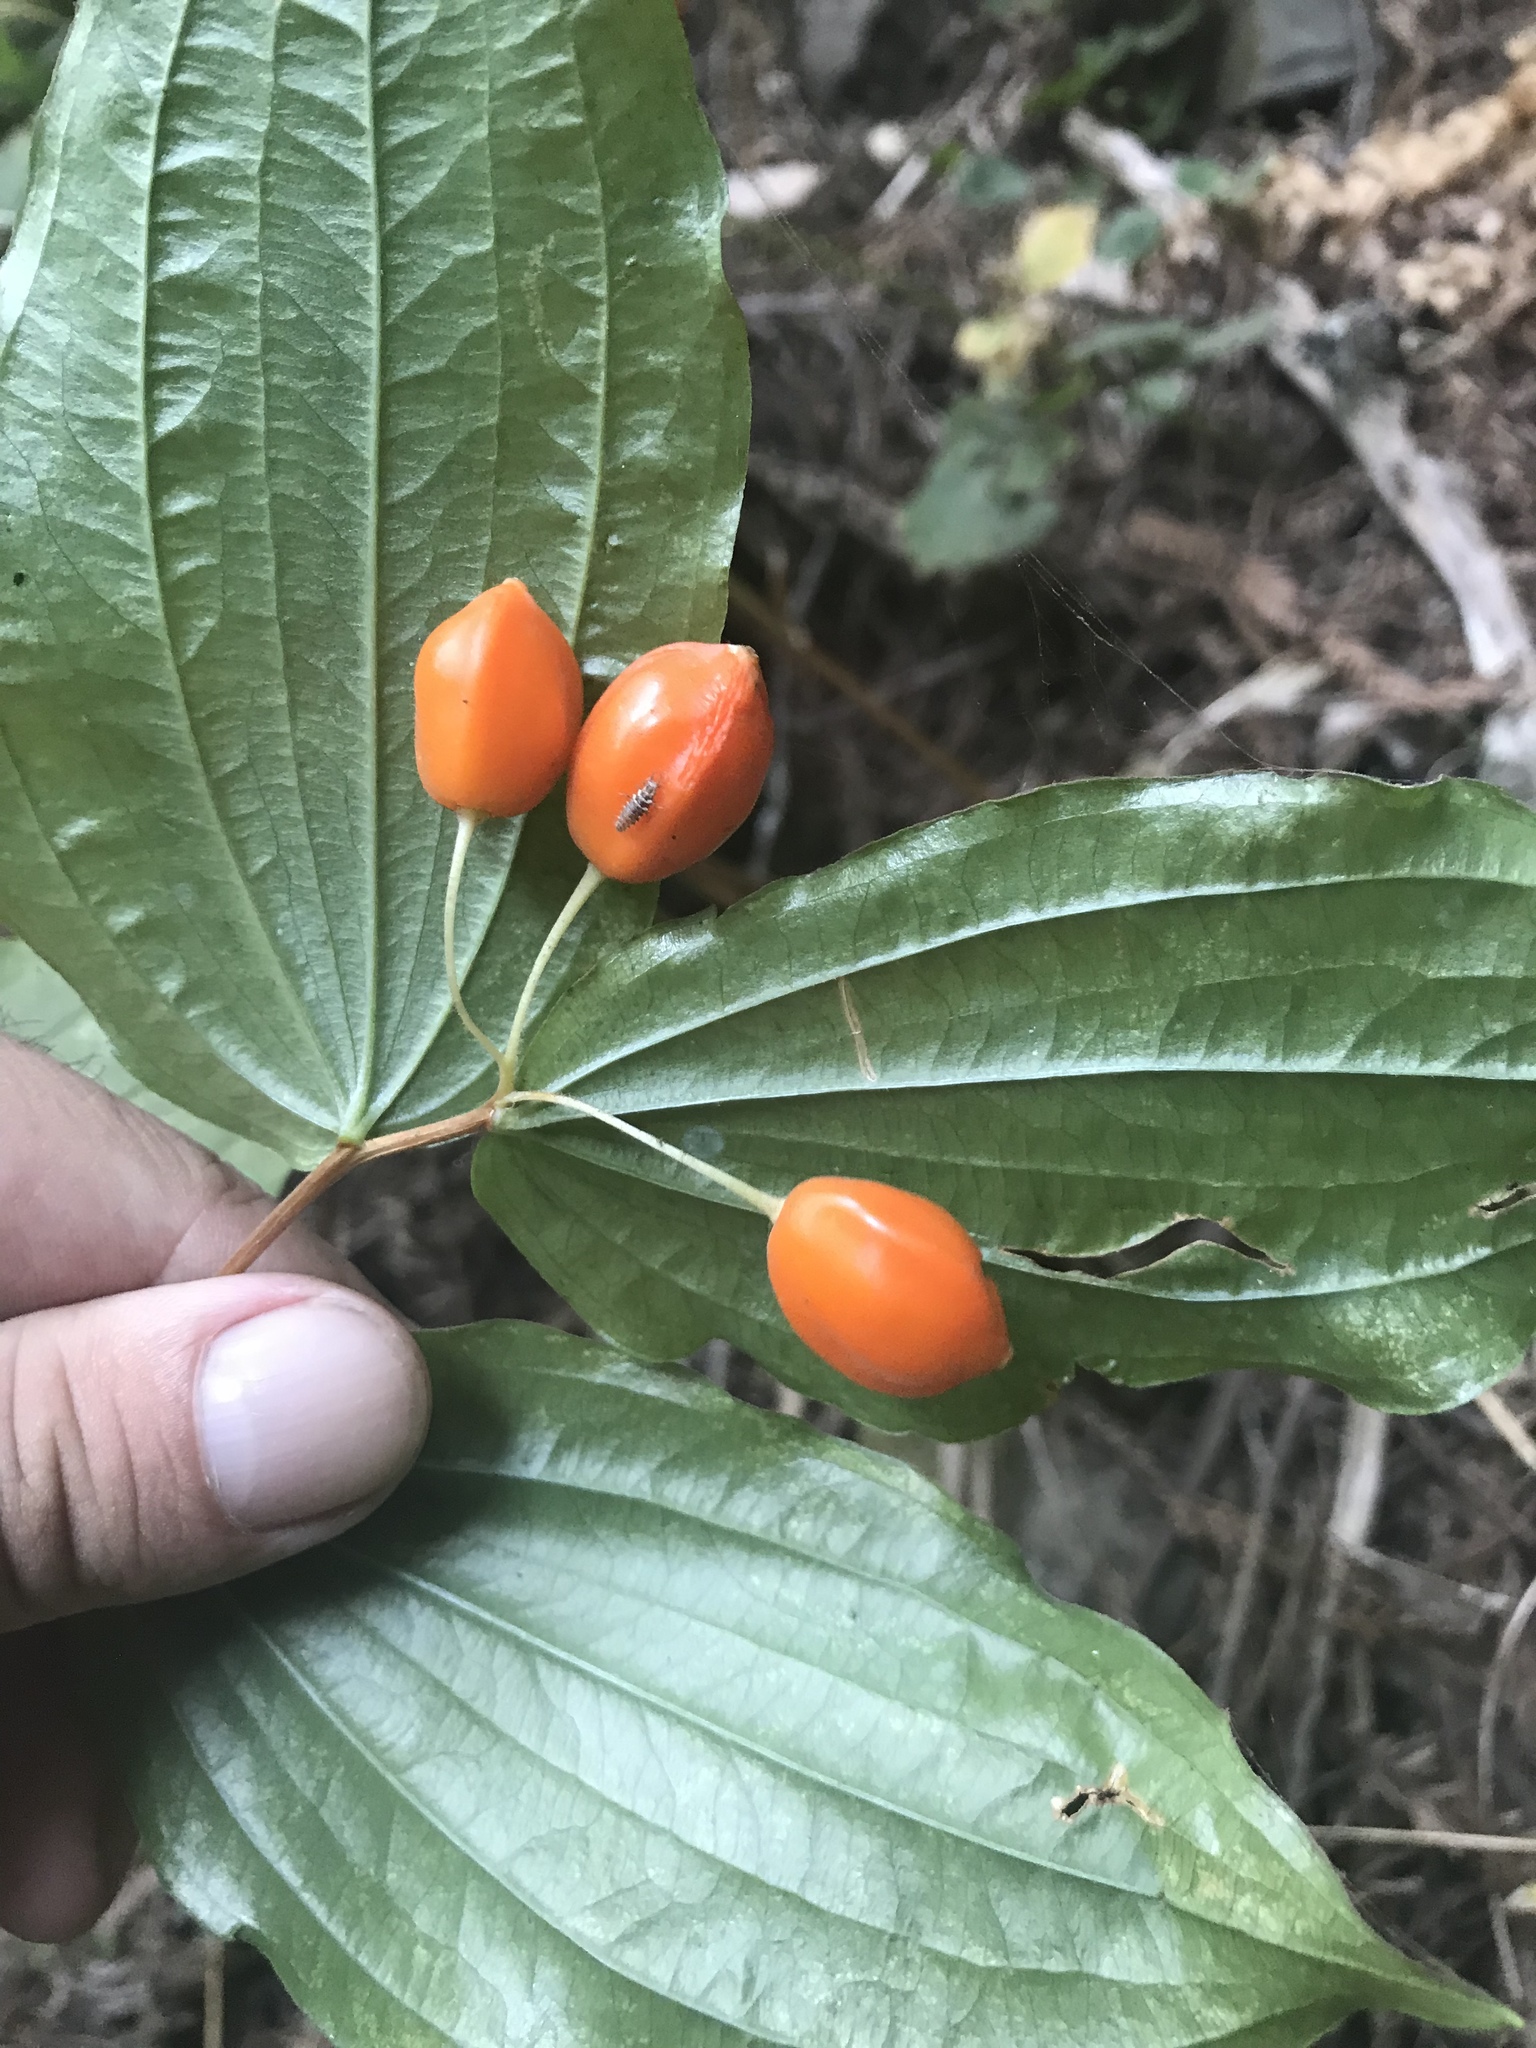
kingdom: Plantae
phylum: Tracheophyta
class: Liliopsida
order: Liliales
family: Liliaceae
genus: Prosartes
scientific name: Prosartes smithii
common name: Fairy-lantern
